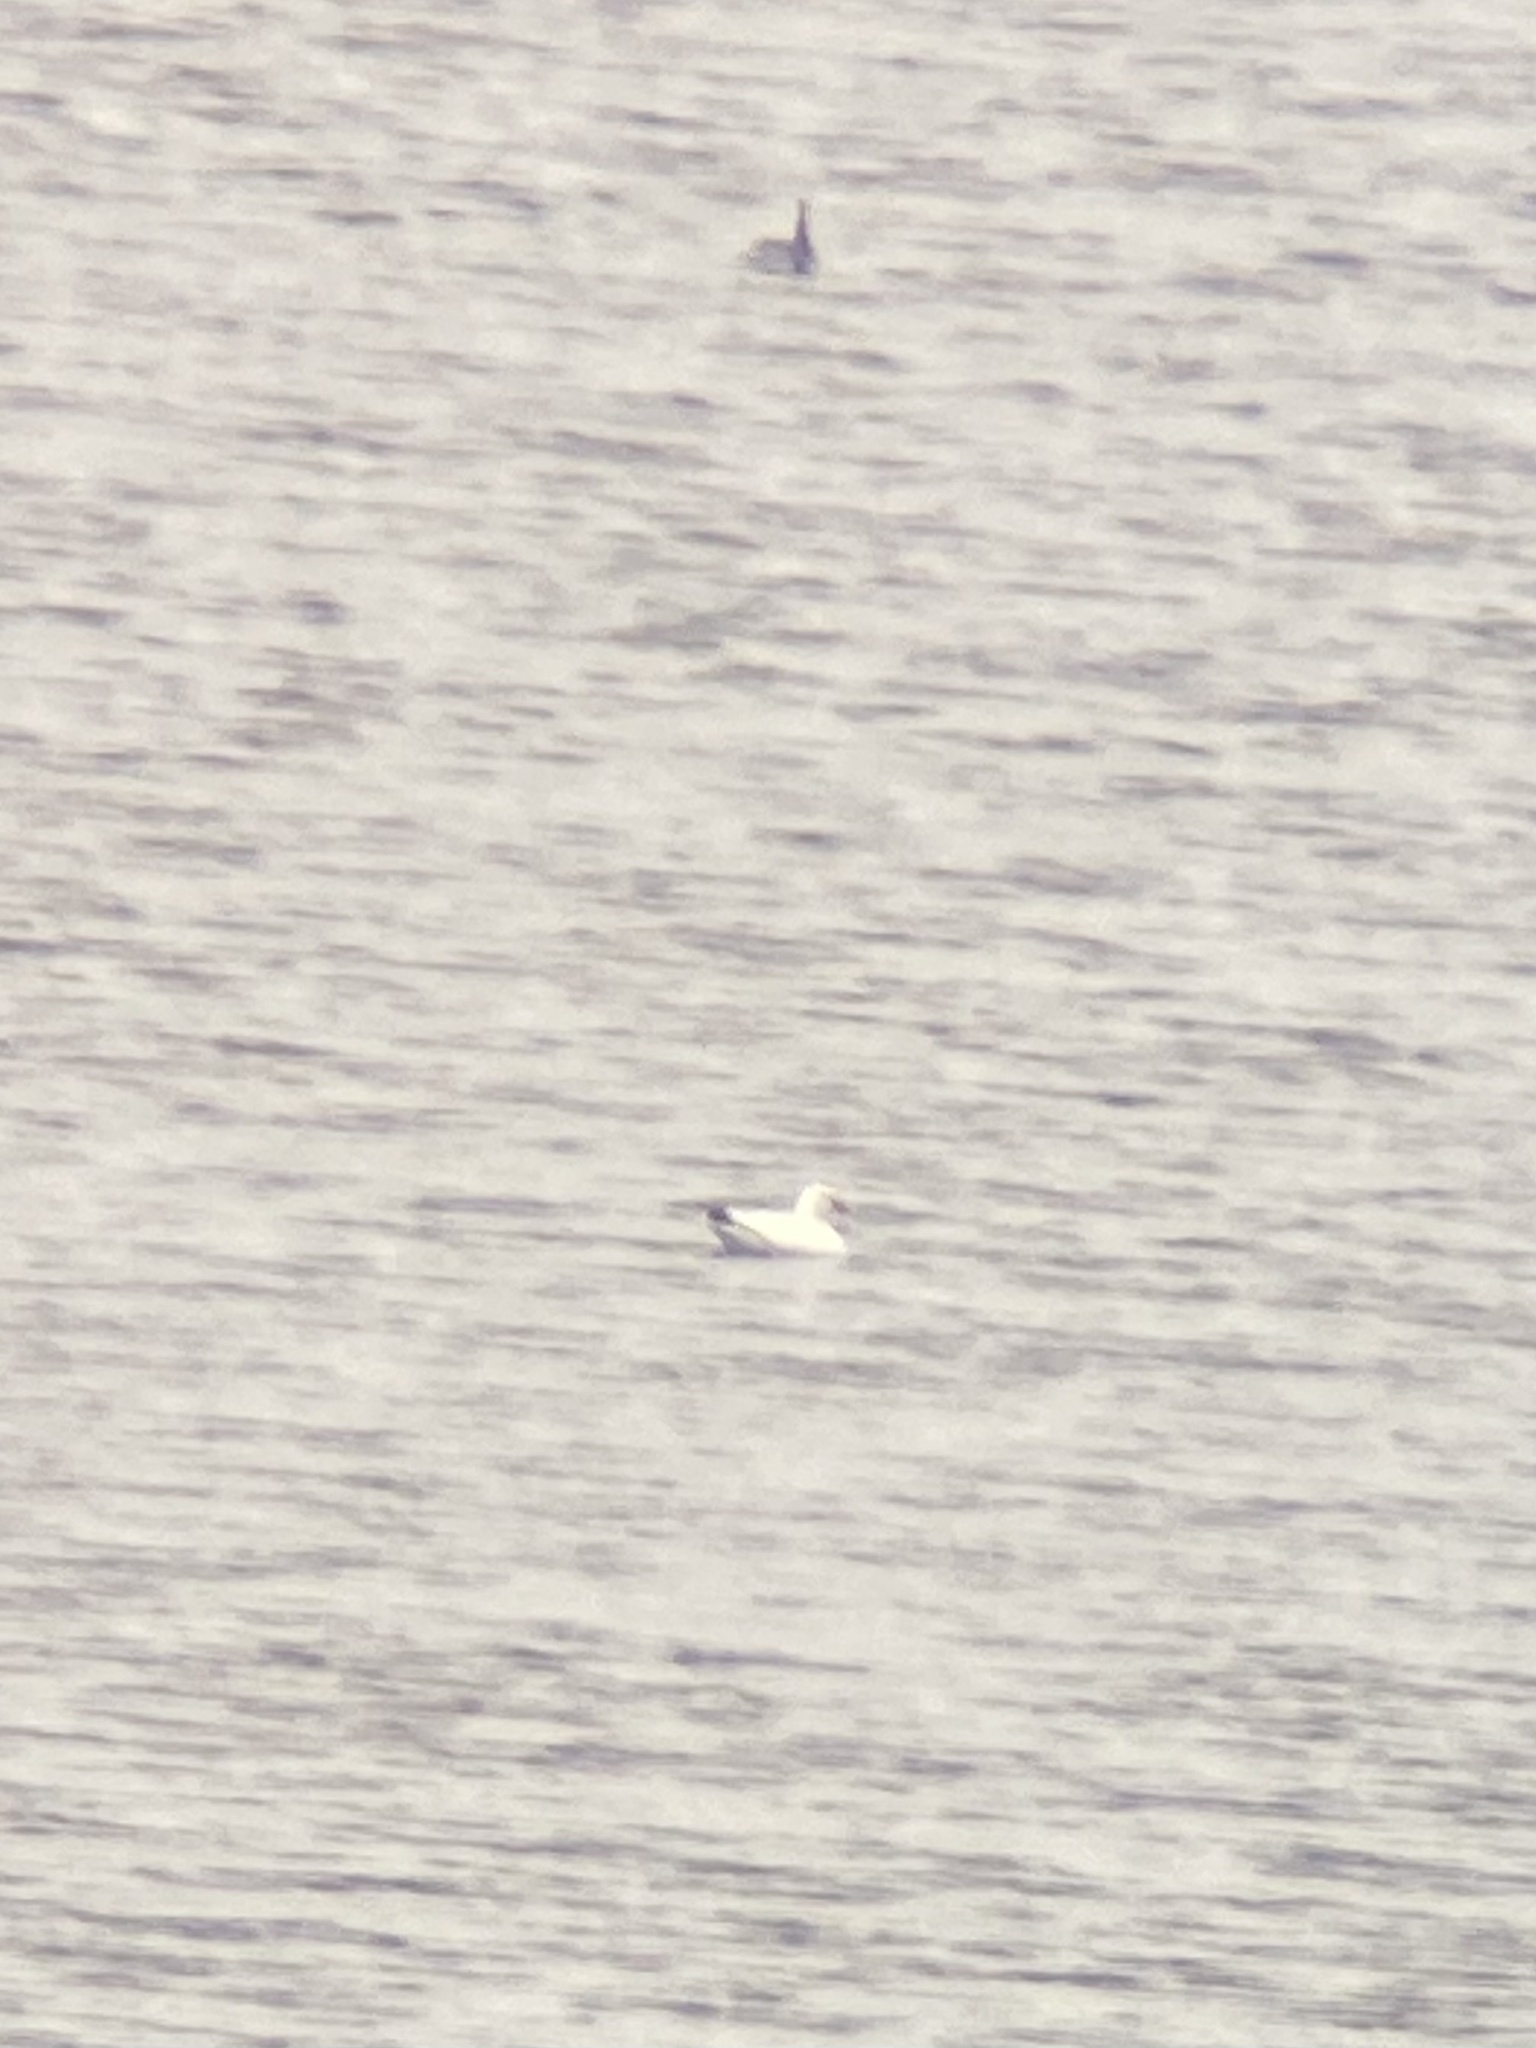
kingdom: Animalia
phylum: Chordata
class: Aves
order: Anseriformes
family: Anatidae
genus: Anser
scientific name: Anser rossii
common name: Ross's goose
